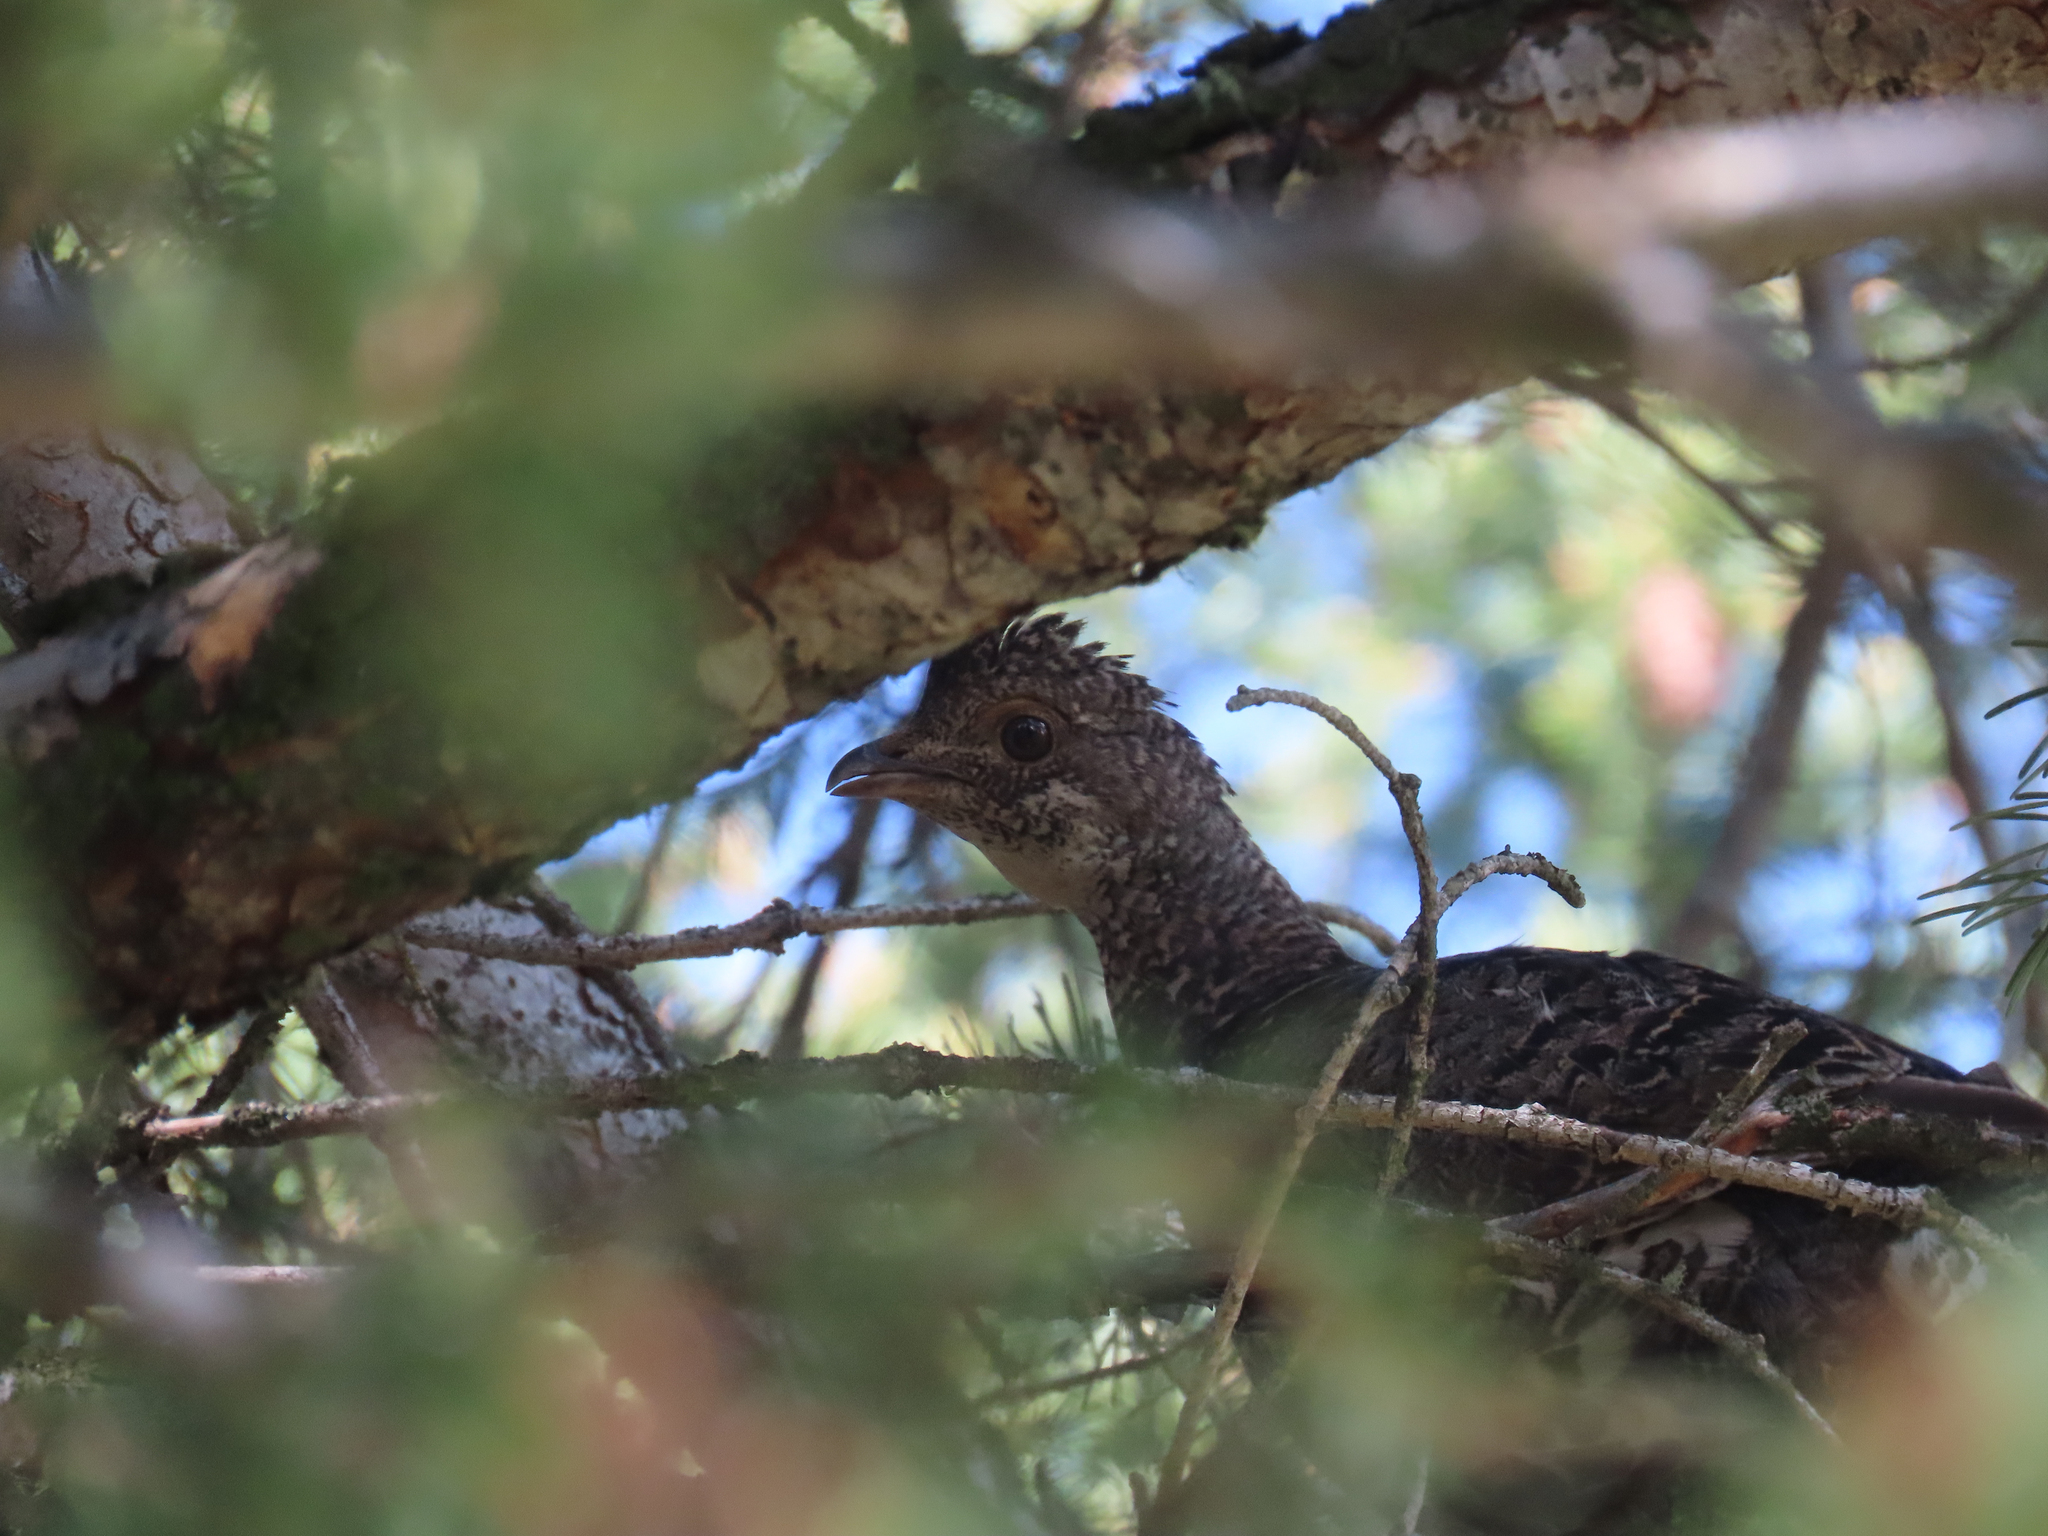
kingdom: Animalia
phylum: Chordata
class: Aves
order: Galliformes
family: Phasianidae
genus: Dendragapus
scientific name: Dendragapus obscurus
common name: Dusky grouse
